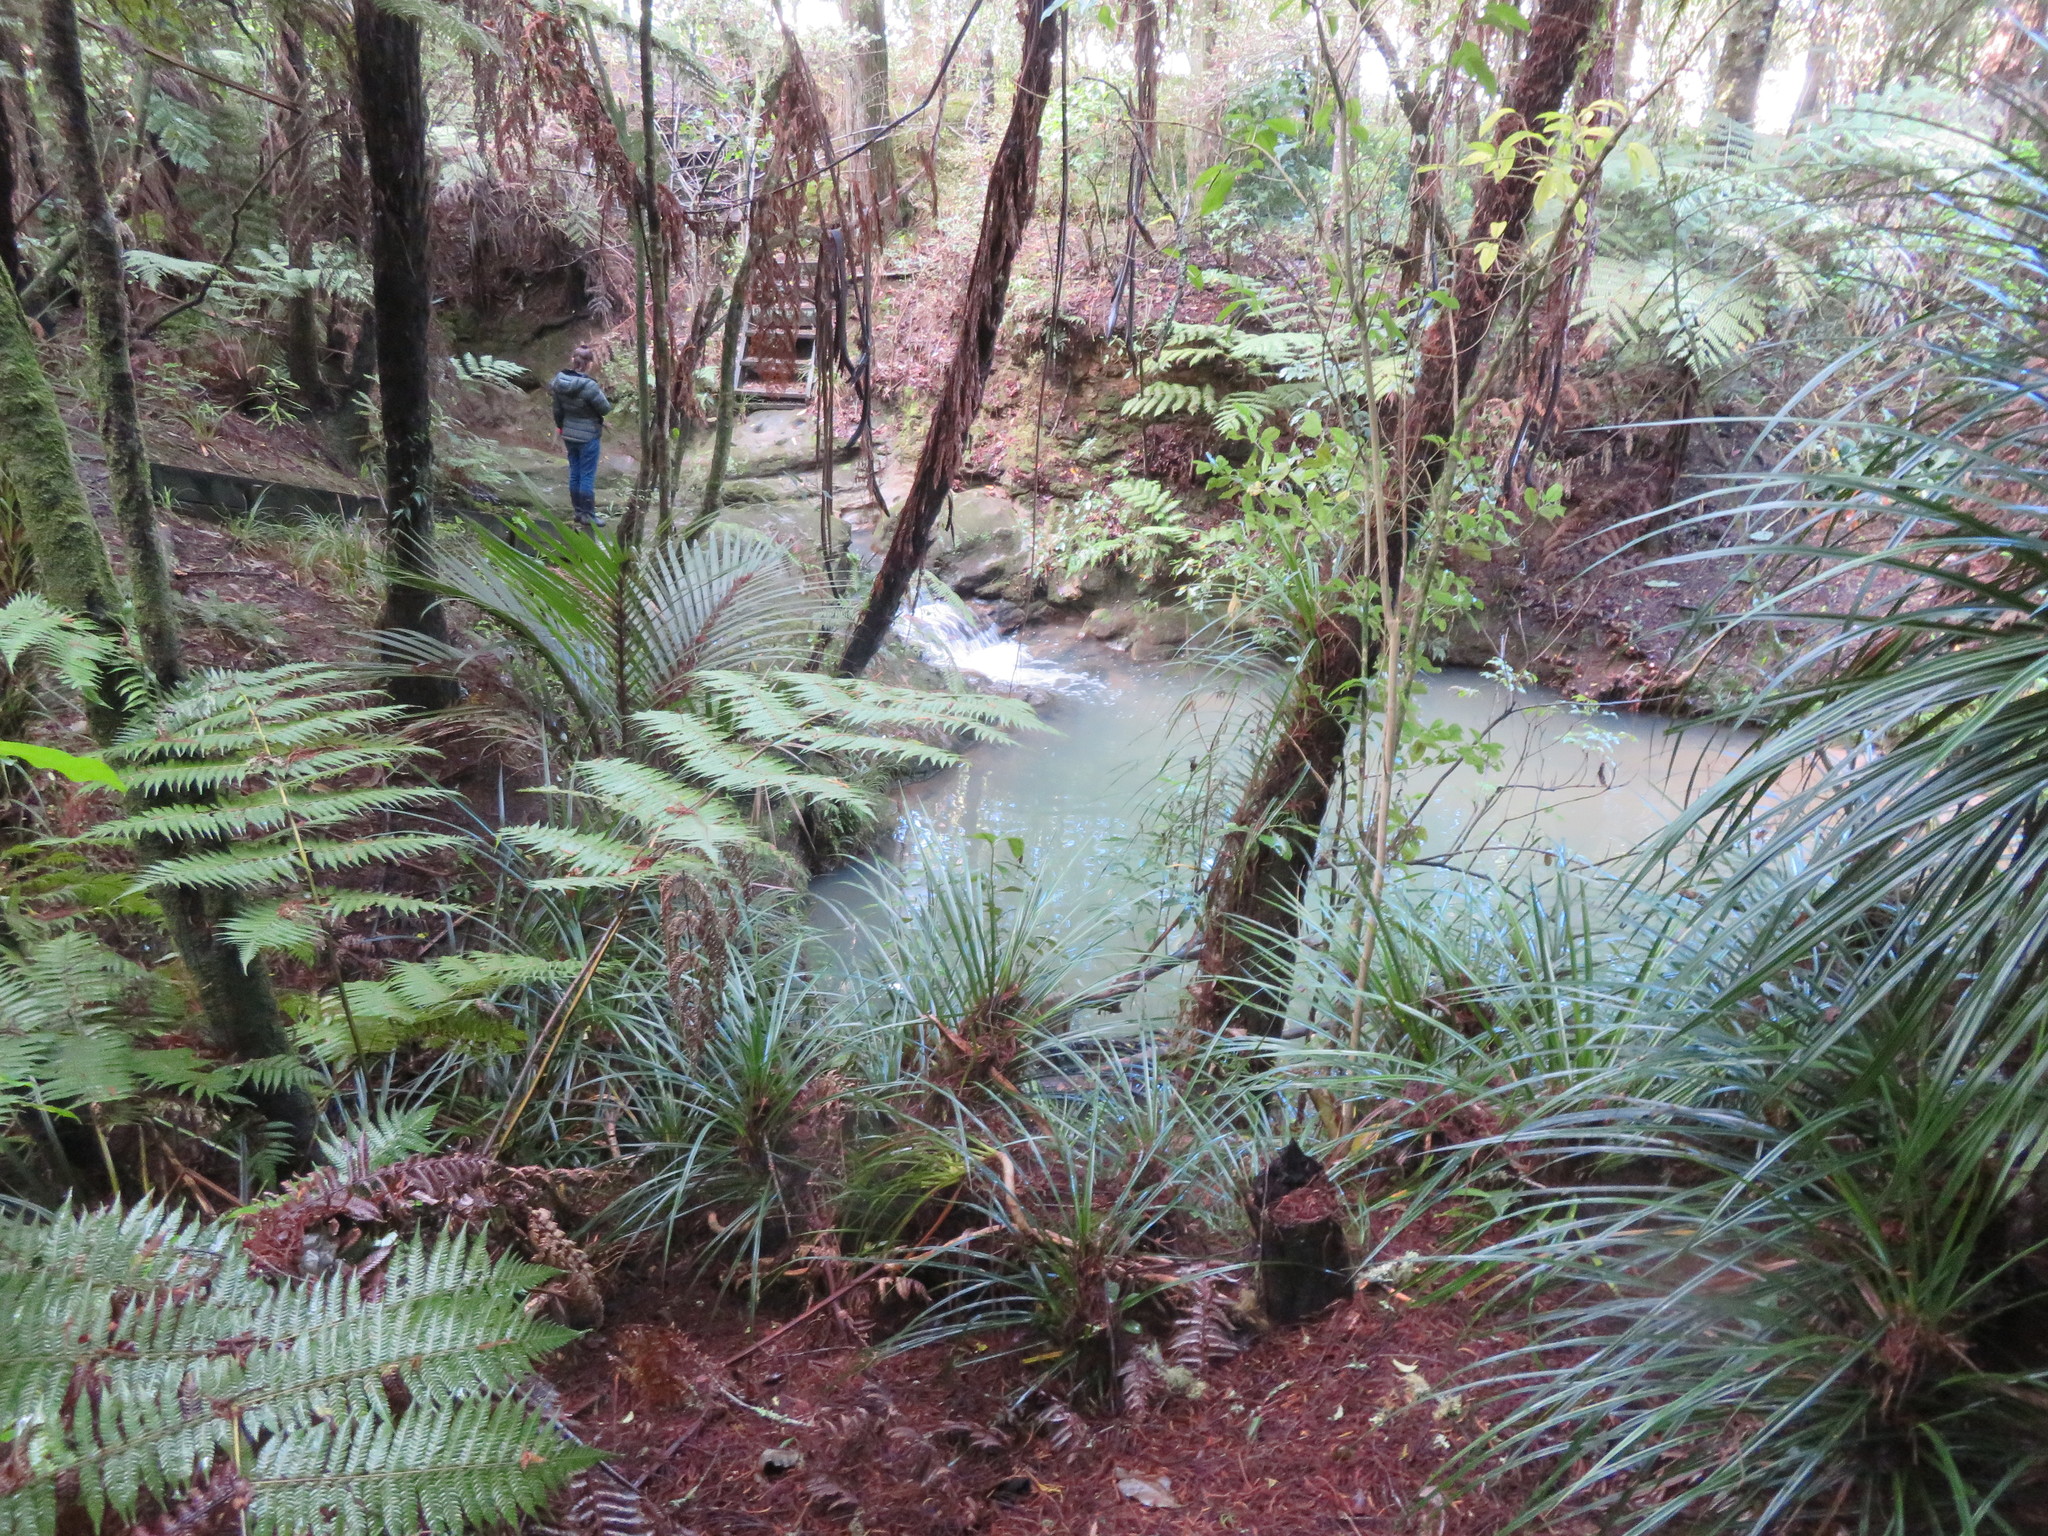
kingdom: Plantae
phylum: Tracheophyta
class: Liliopsida
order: Pandanales
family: Pandanaceae
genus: Freycinetia
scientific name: Freycinetia banksii
